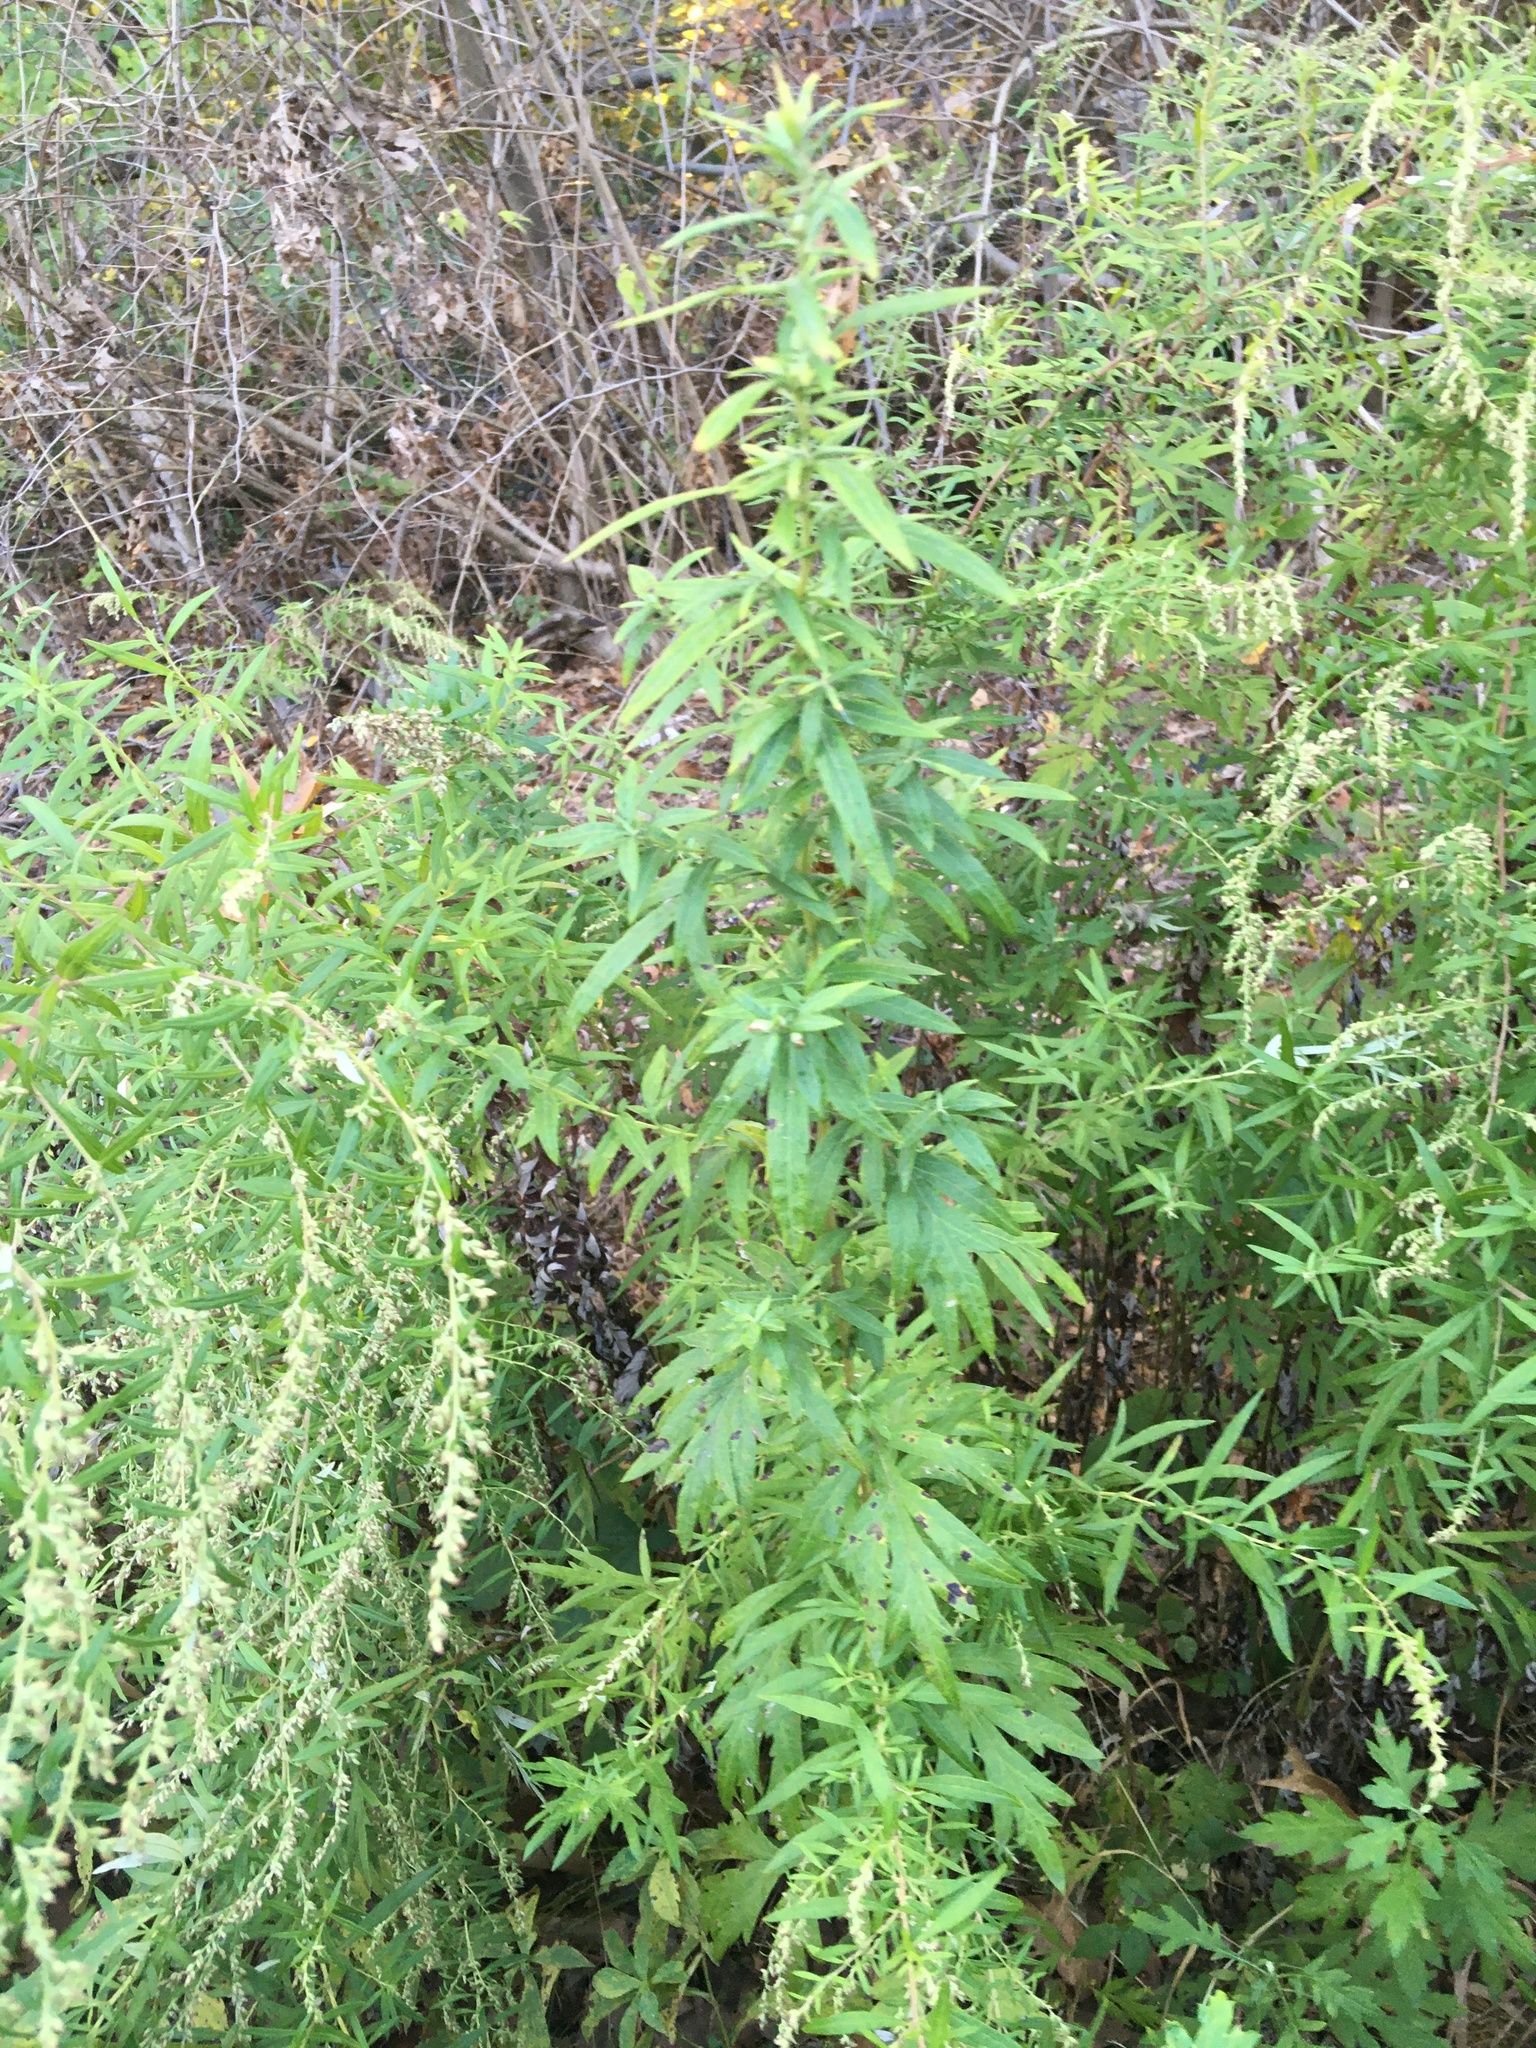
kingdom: Plantae
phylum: Tracheophyta
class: Magnoliopsida
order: Asterales
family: Asteraceae
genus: Artemisia
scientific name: Artemisia vulgaris
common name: Mugwort
